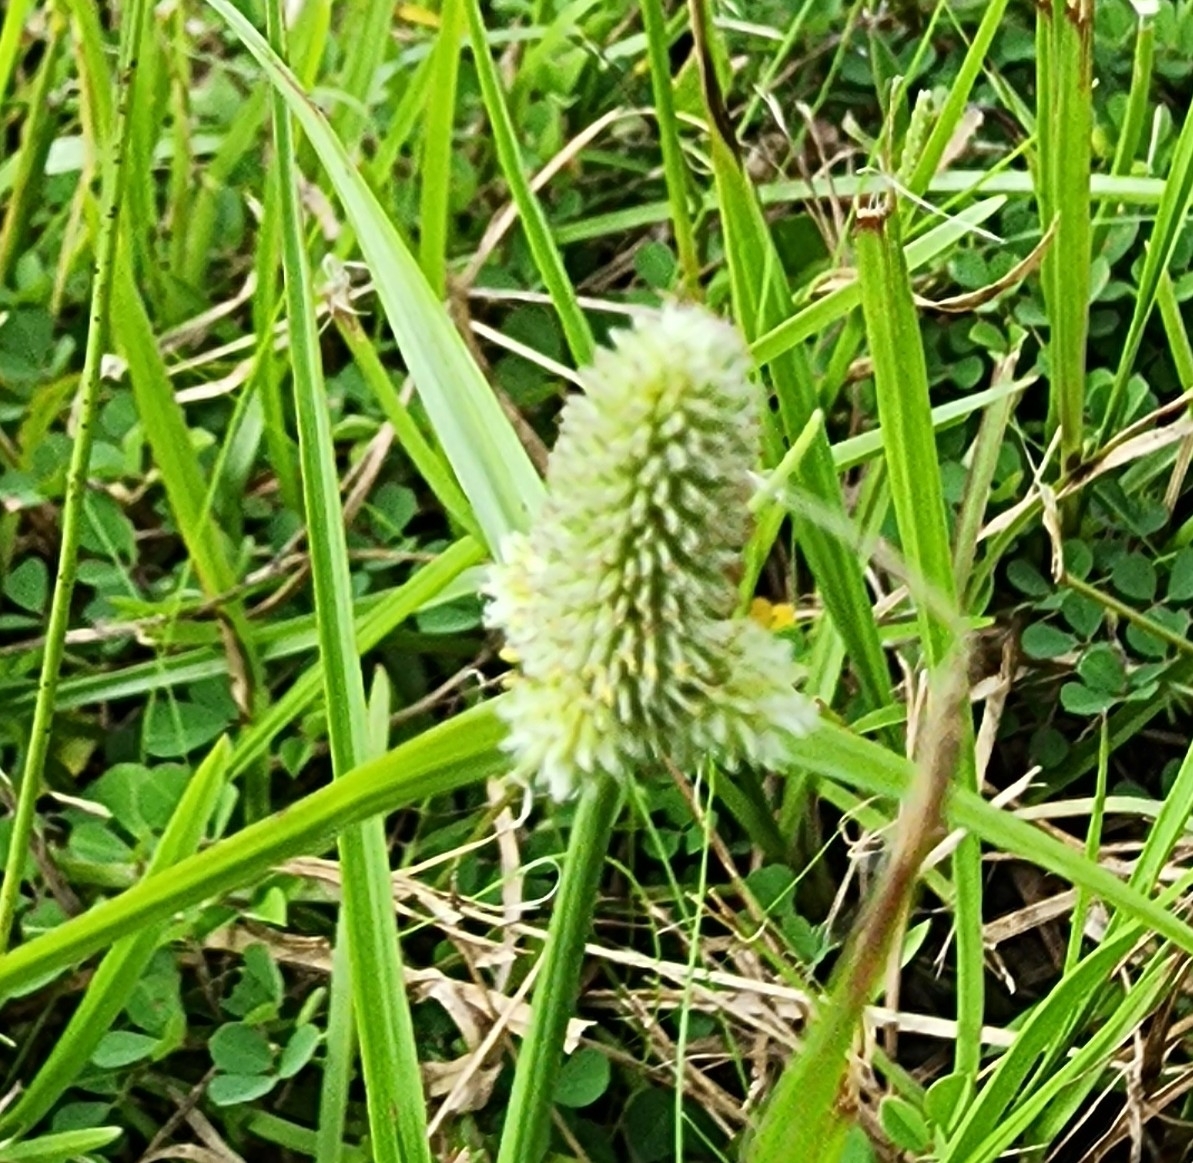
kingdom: Plantae
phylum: Tracheophyta
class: Liliopsida
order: Poales
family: Cyperaceae
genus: Cyperus
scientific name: Cyperus sesquiflorus
